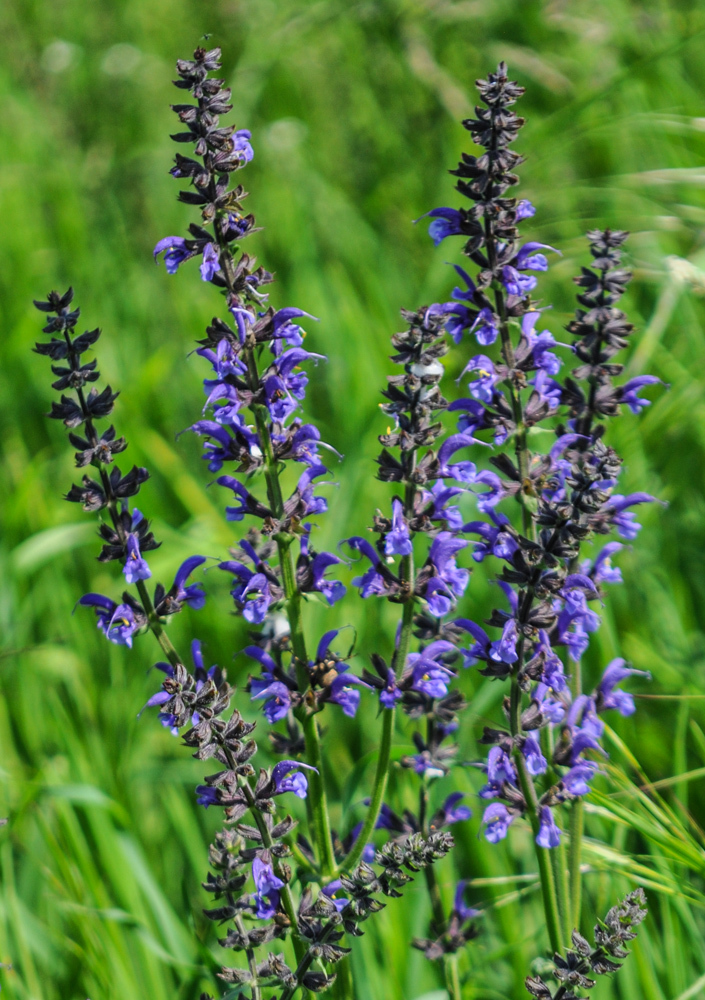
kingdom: Plantae
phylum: Tracheophyta
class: Magnoliopsida
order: Lamiales
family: Lamiaceae
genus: Salvia
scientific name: Salvia pratensis
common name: Meadow sage
